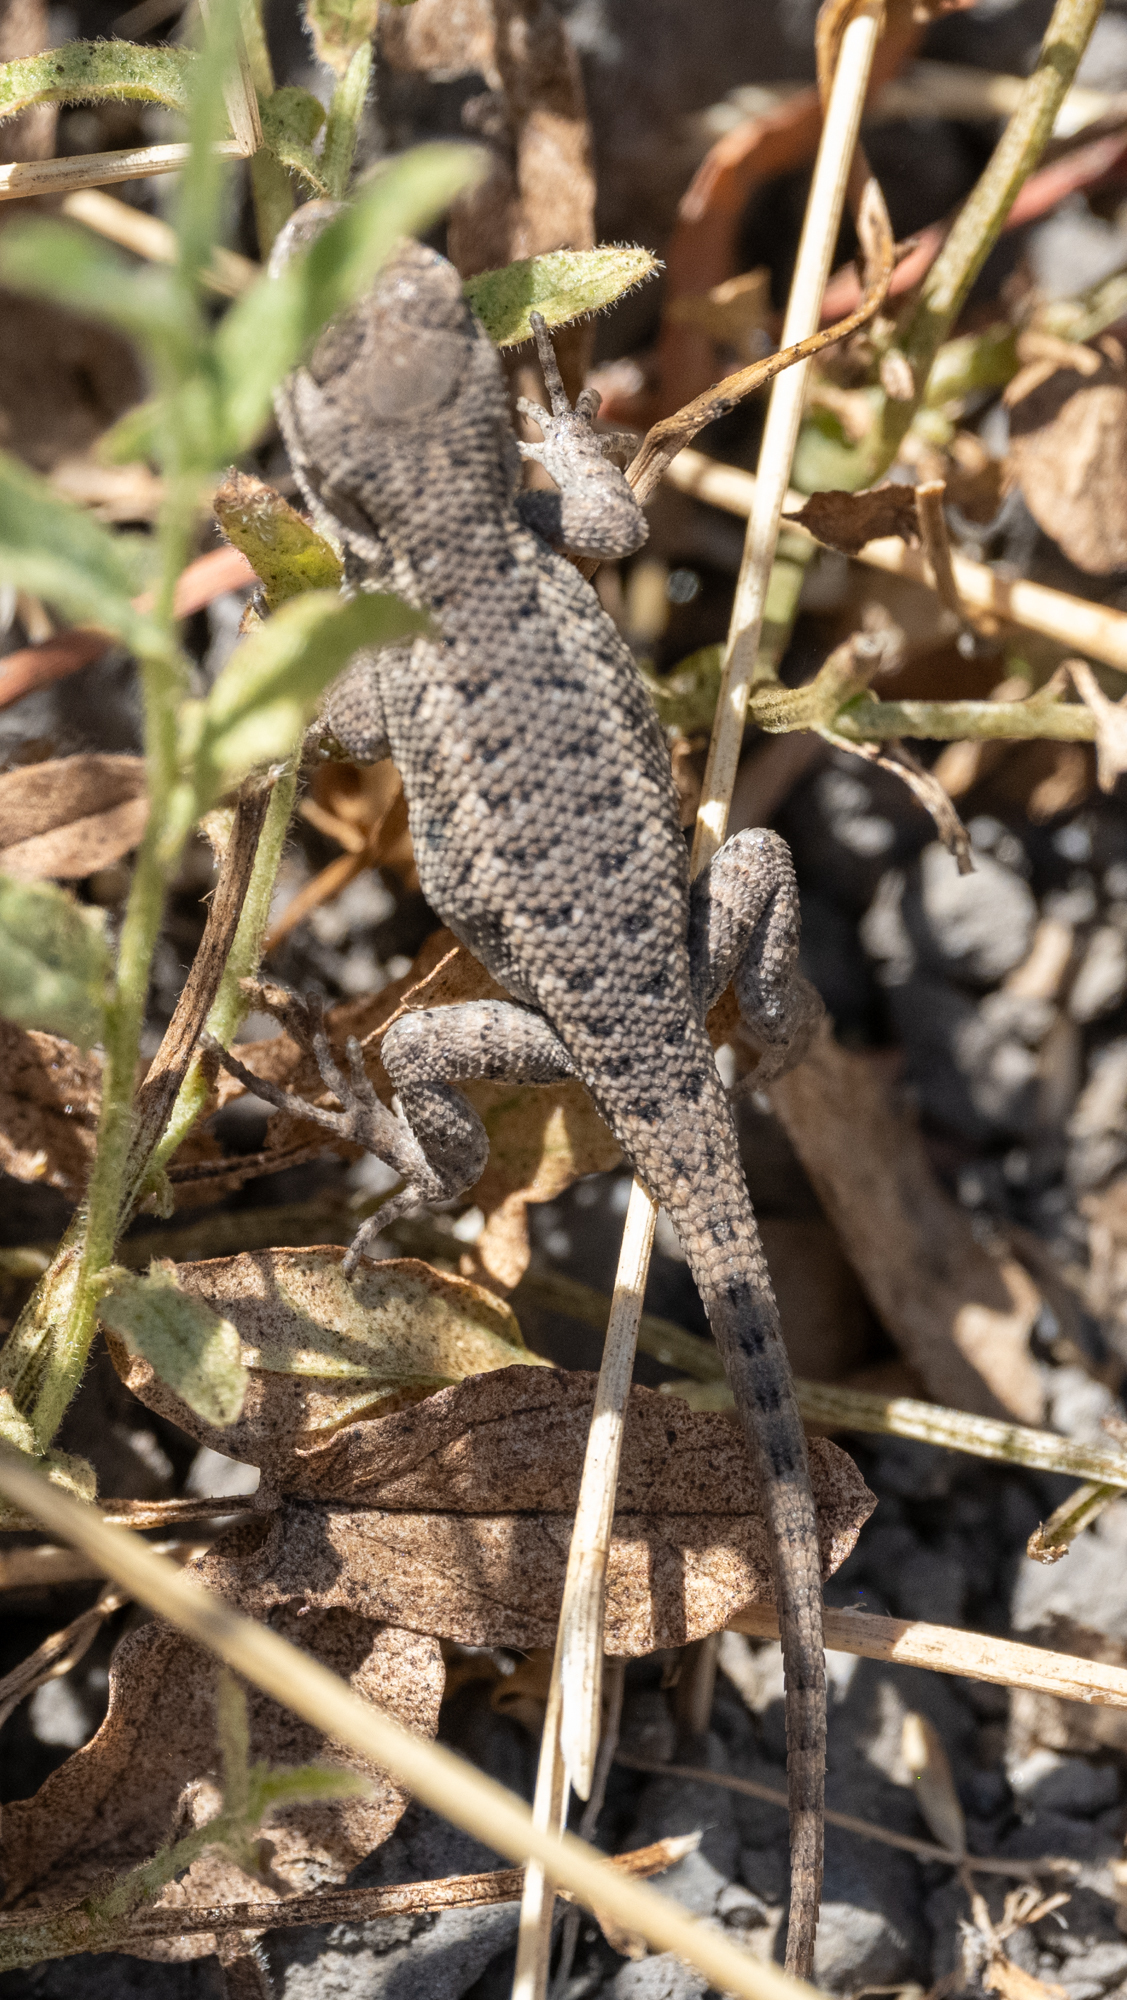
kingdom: Animalia
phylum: Chordata
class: Squamata
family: Phrynosomatidae
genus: Sceloporus
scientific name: Sceloporus occidentalis
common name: Western fence lizard
